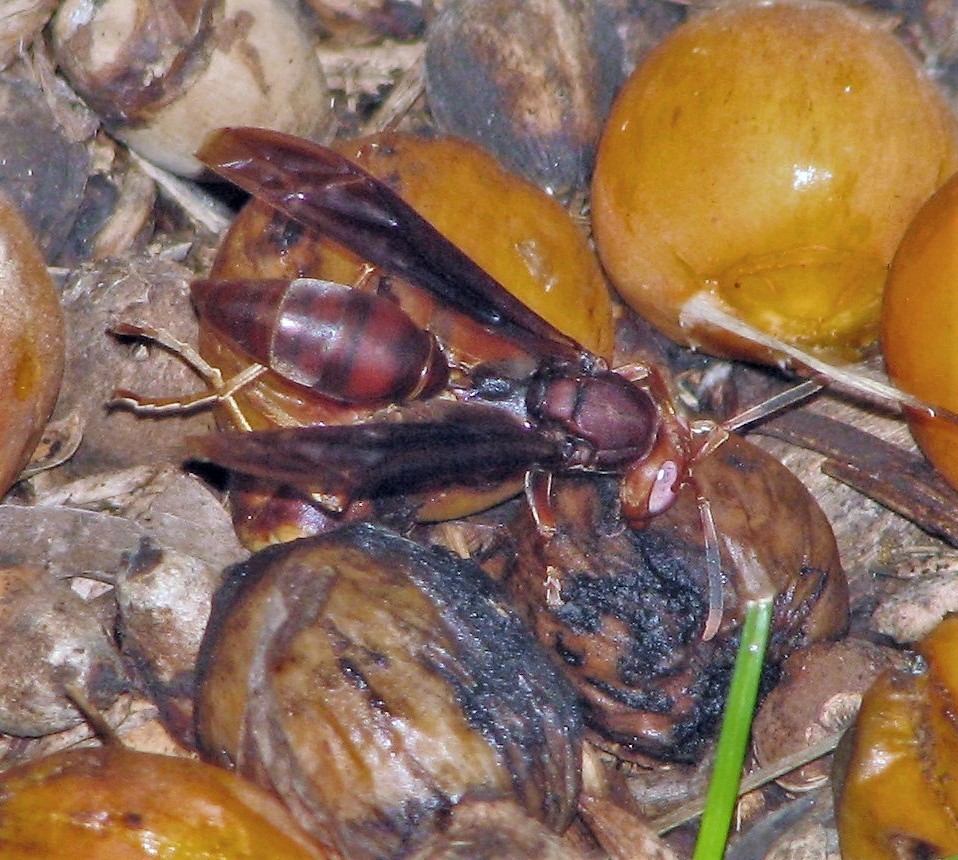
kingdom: Animalia
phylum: Arthropoda
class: Insecta
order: Hymenoptera
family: Pompilidae
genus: Aphanilopterus
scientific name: Aphanilopterus
